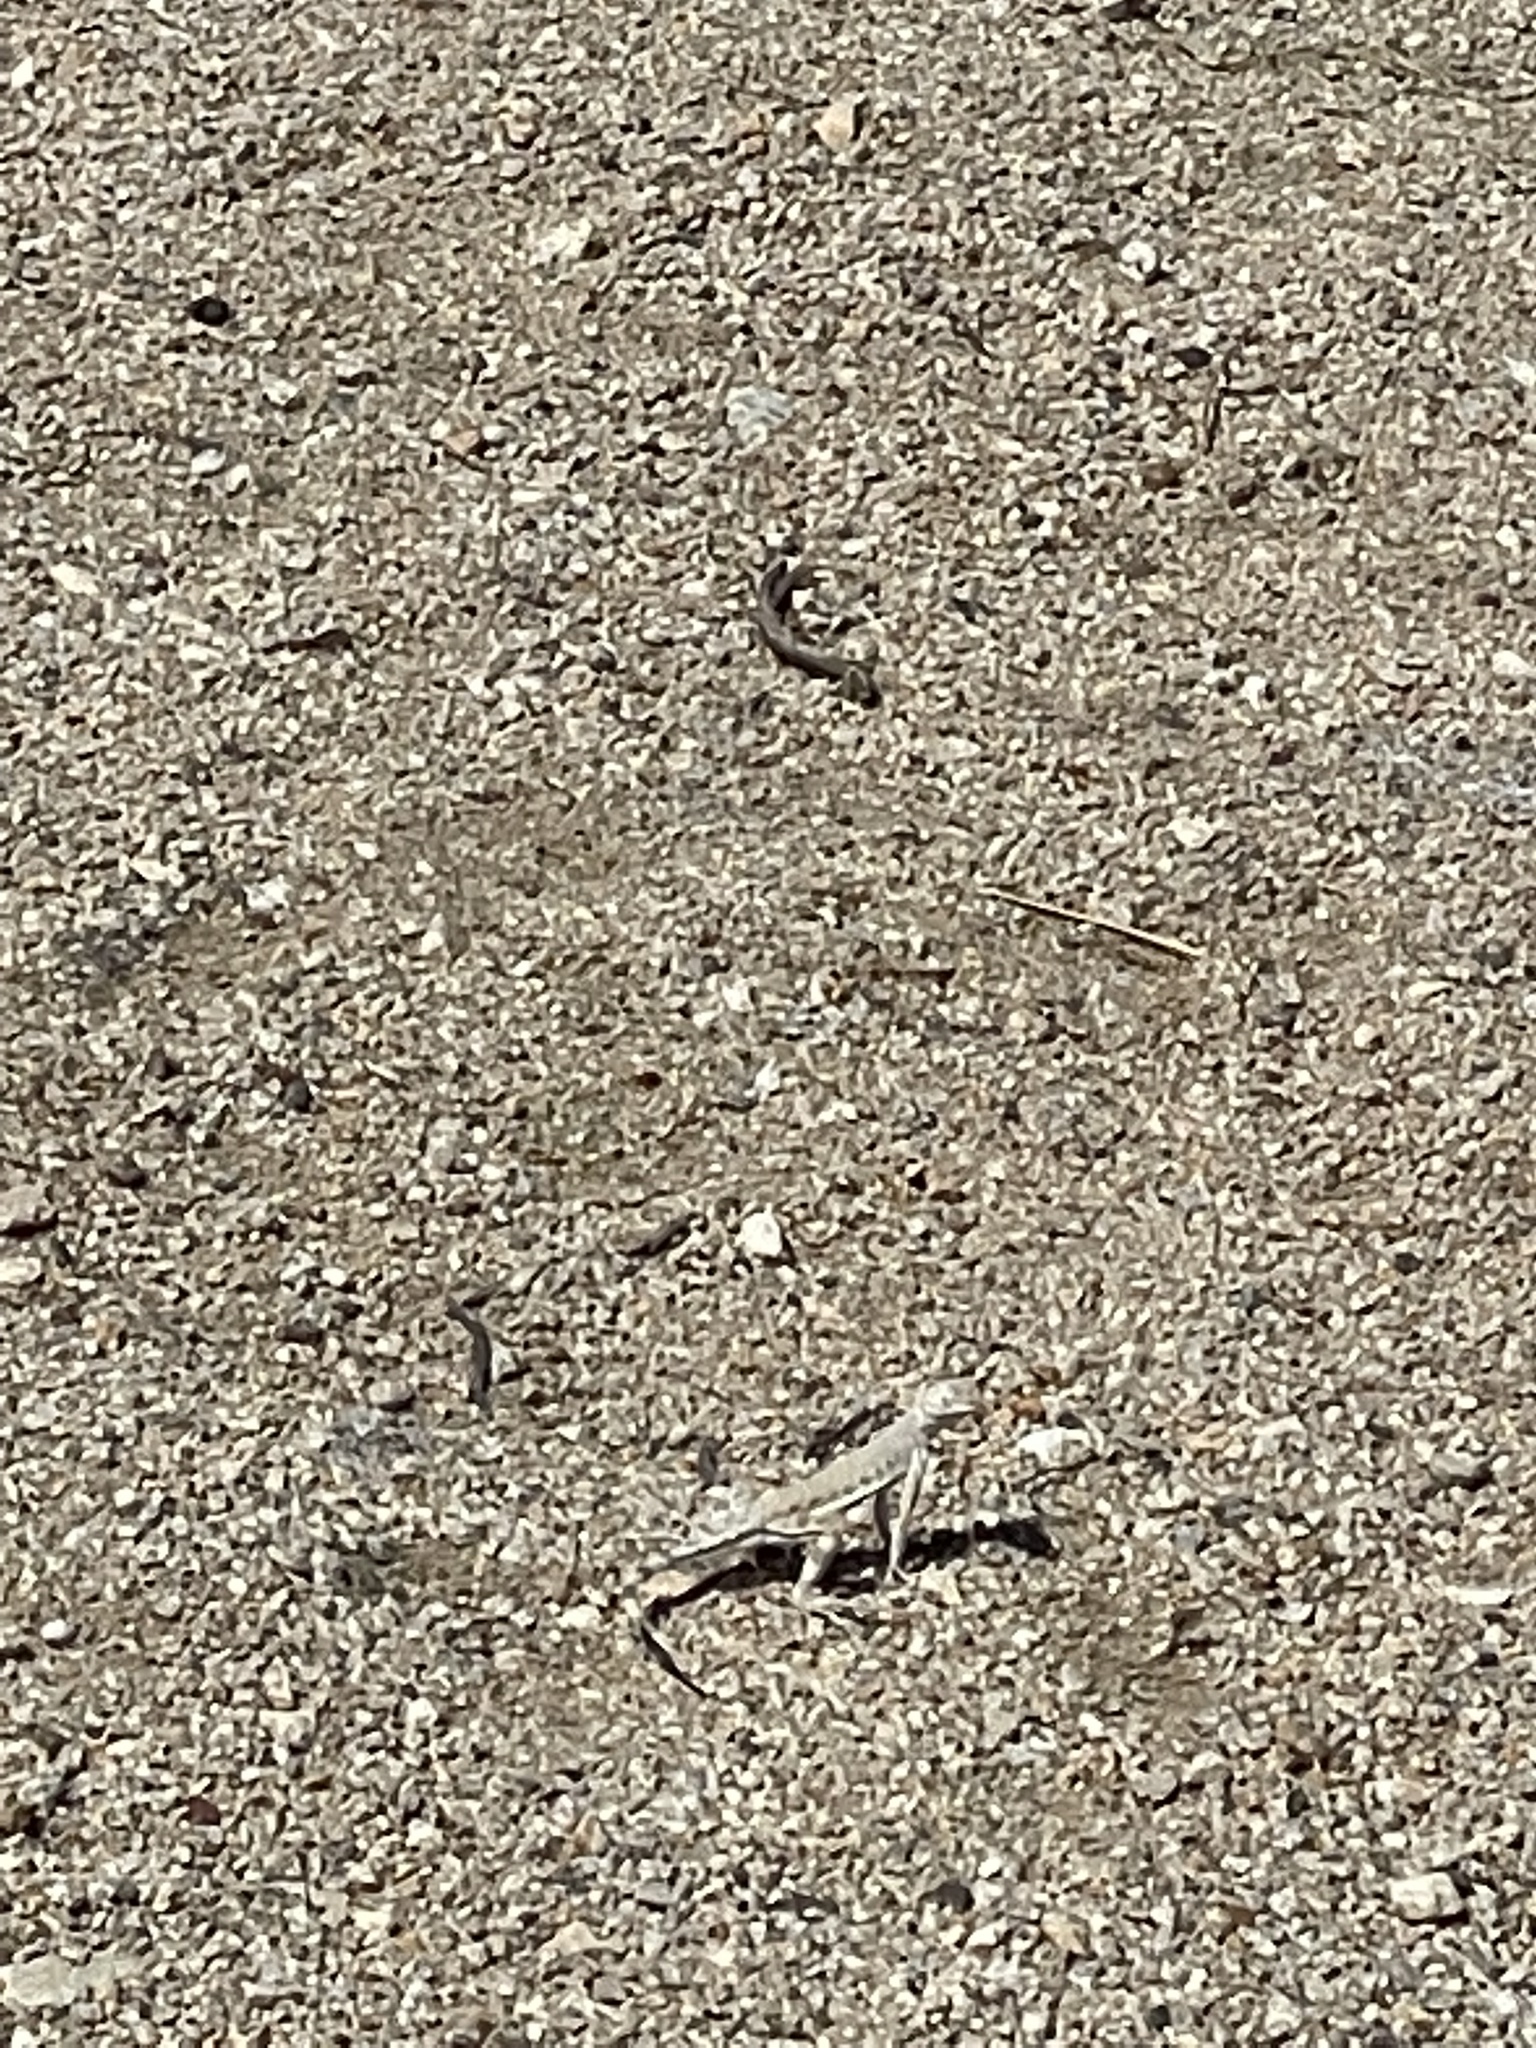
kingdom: Animalia
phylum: Chordata
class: Squamata
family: Phrynosomatidae
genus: Callisaurus
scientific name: Callisaurus draconoides
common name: Zebra-tailed lizard
